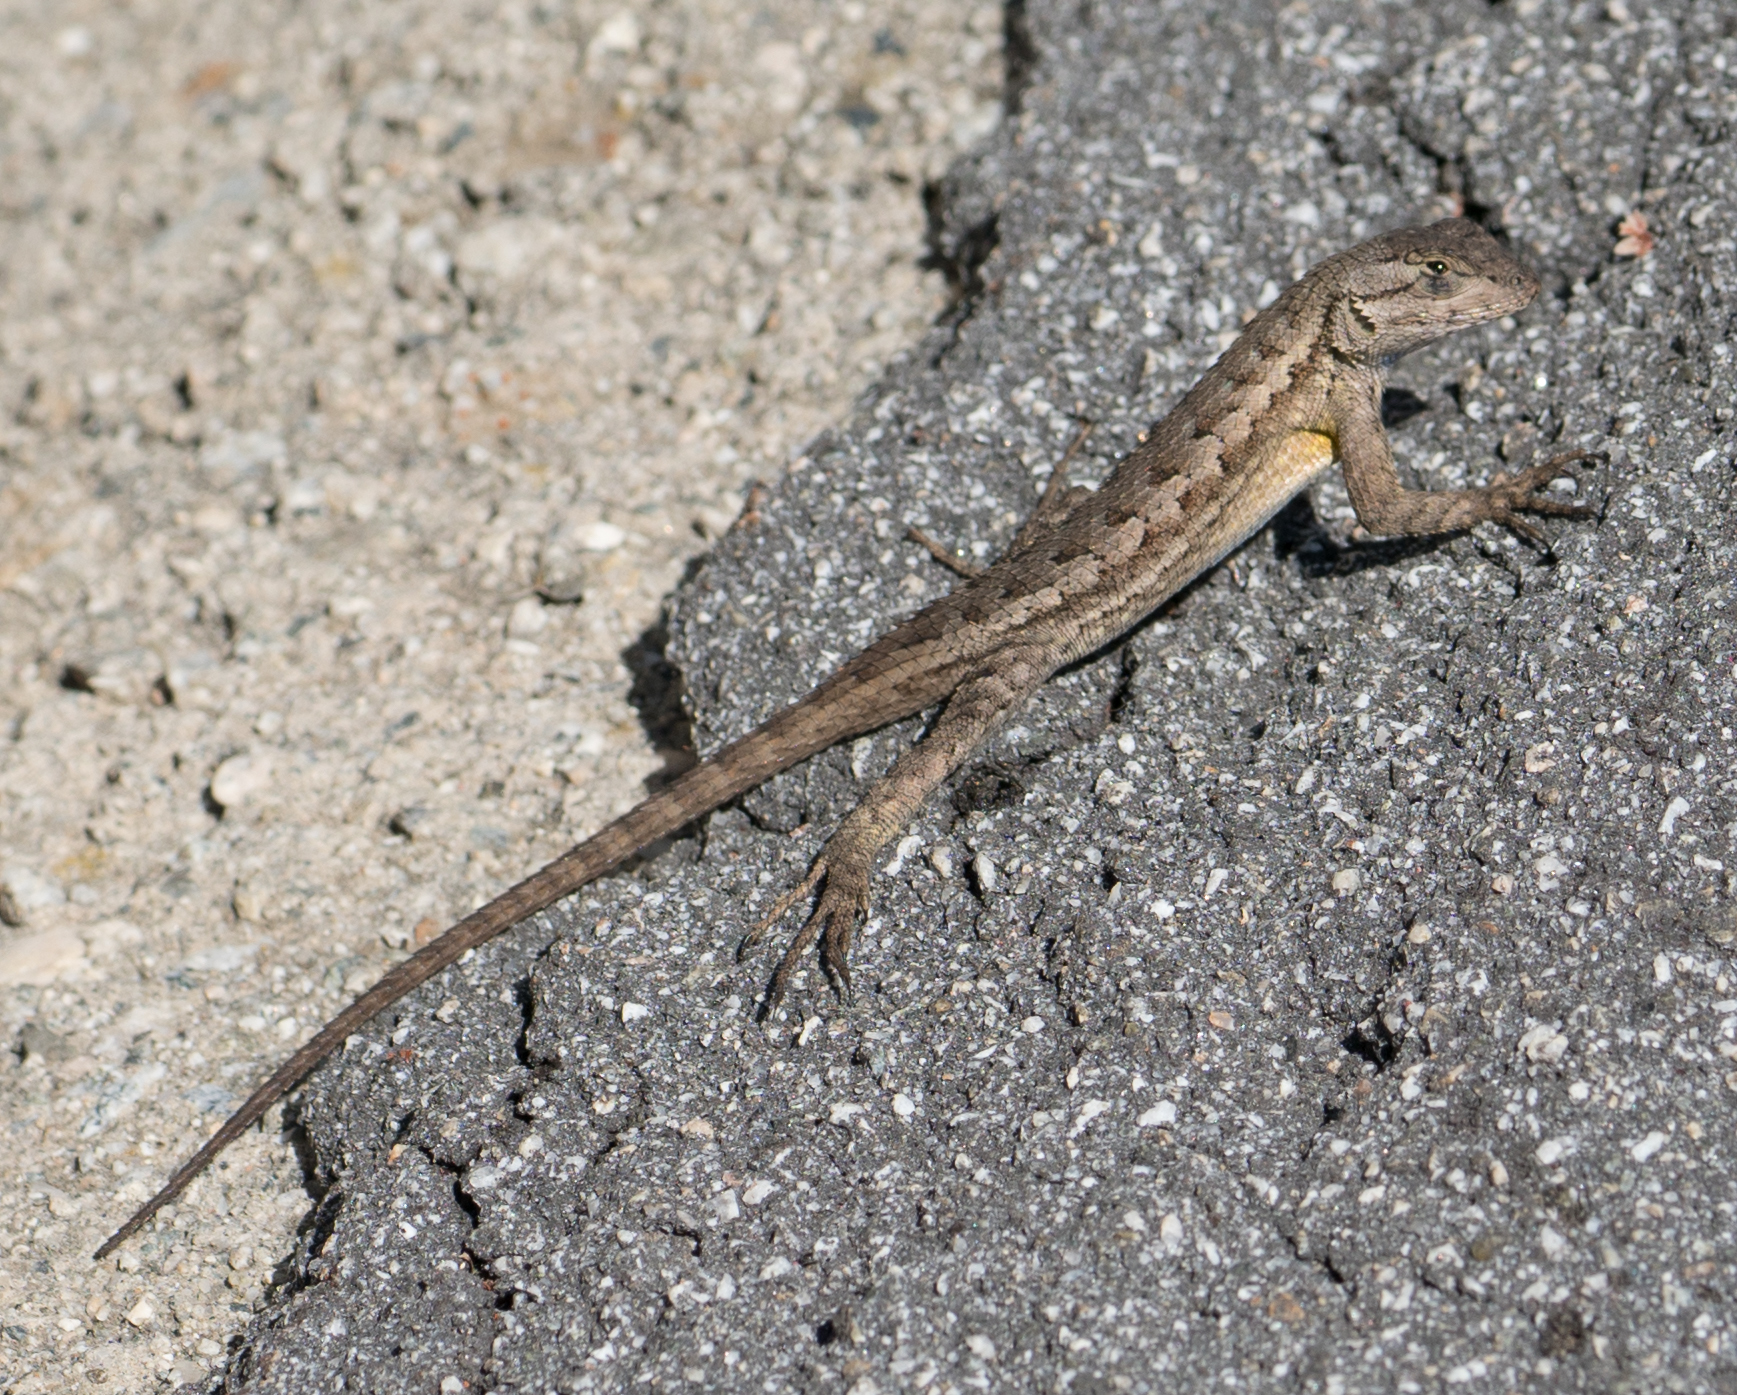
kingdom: Animalia
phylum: Chordata
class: Squamata
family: Phrynosomatidae
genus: Sceloporus
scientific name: Sceloporus occidentalis
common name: Western fence lizard
